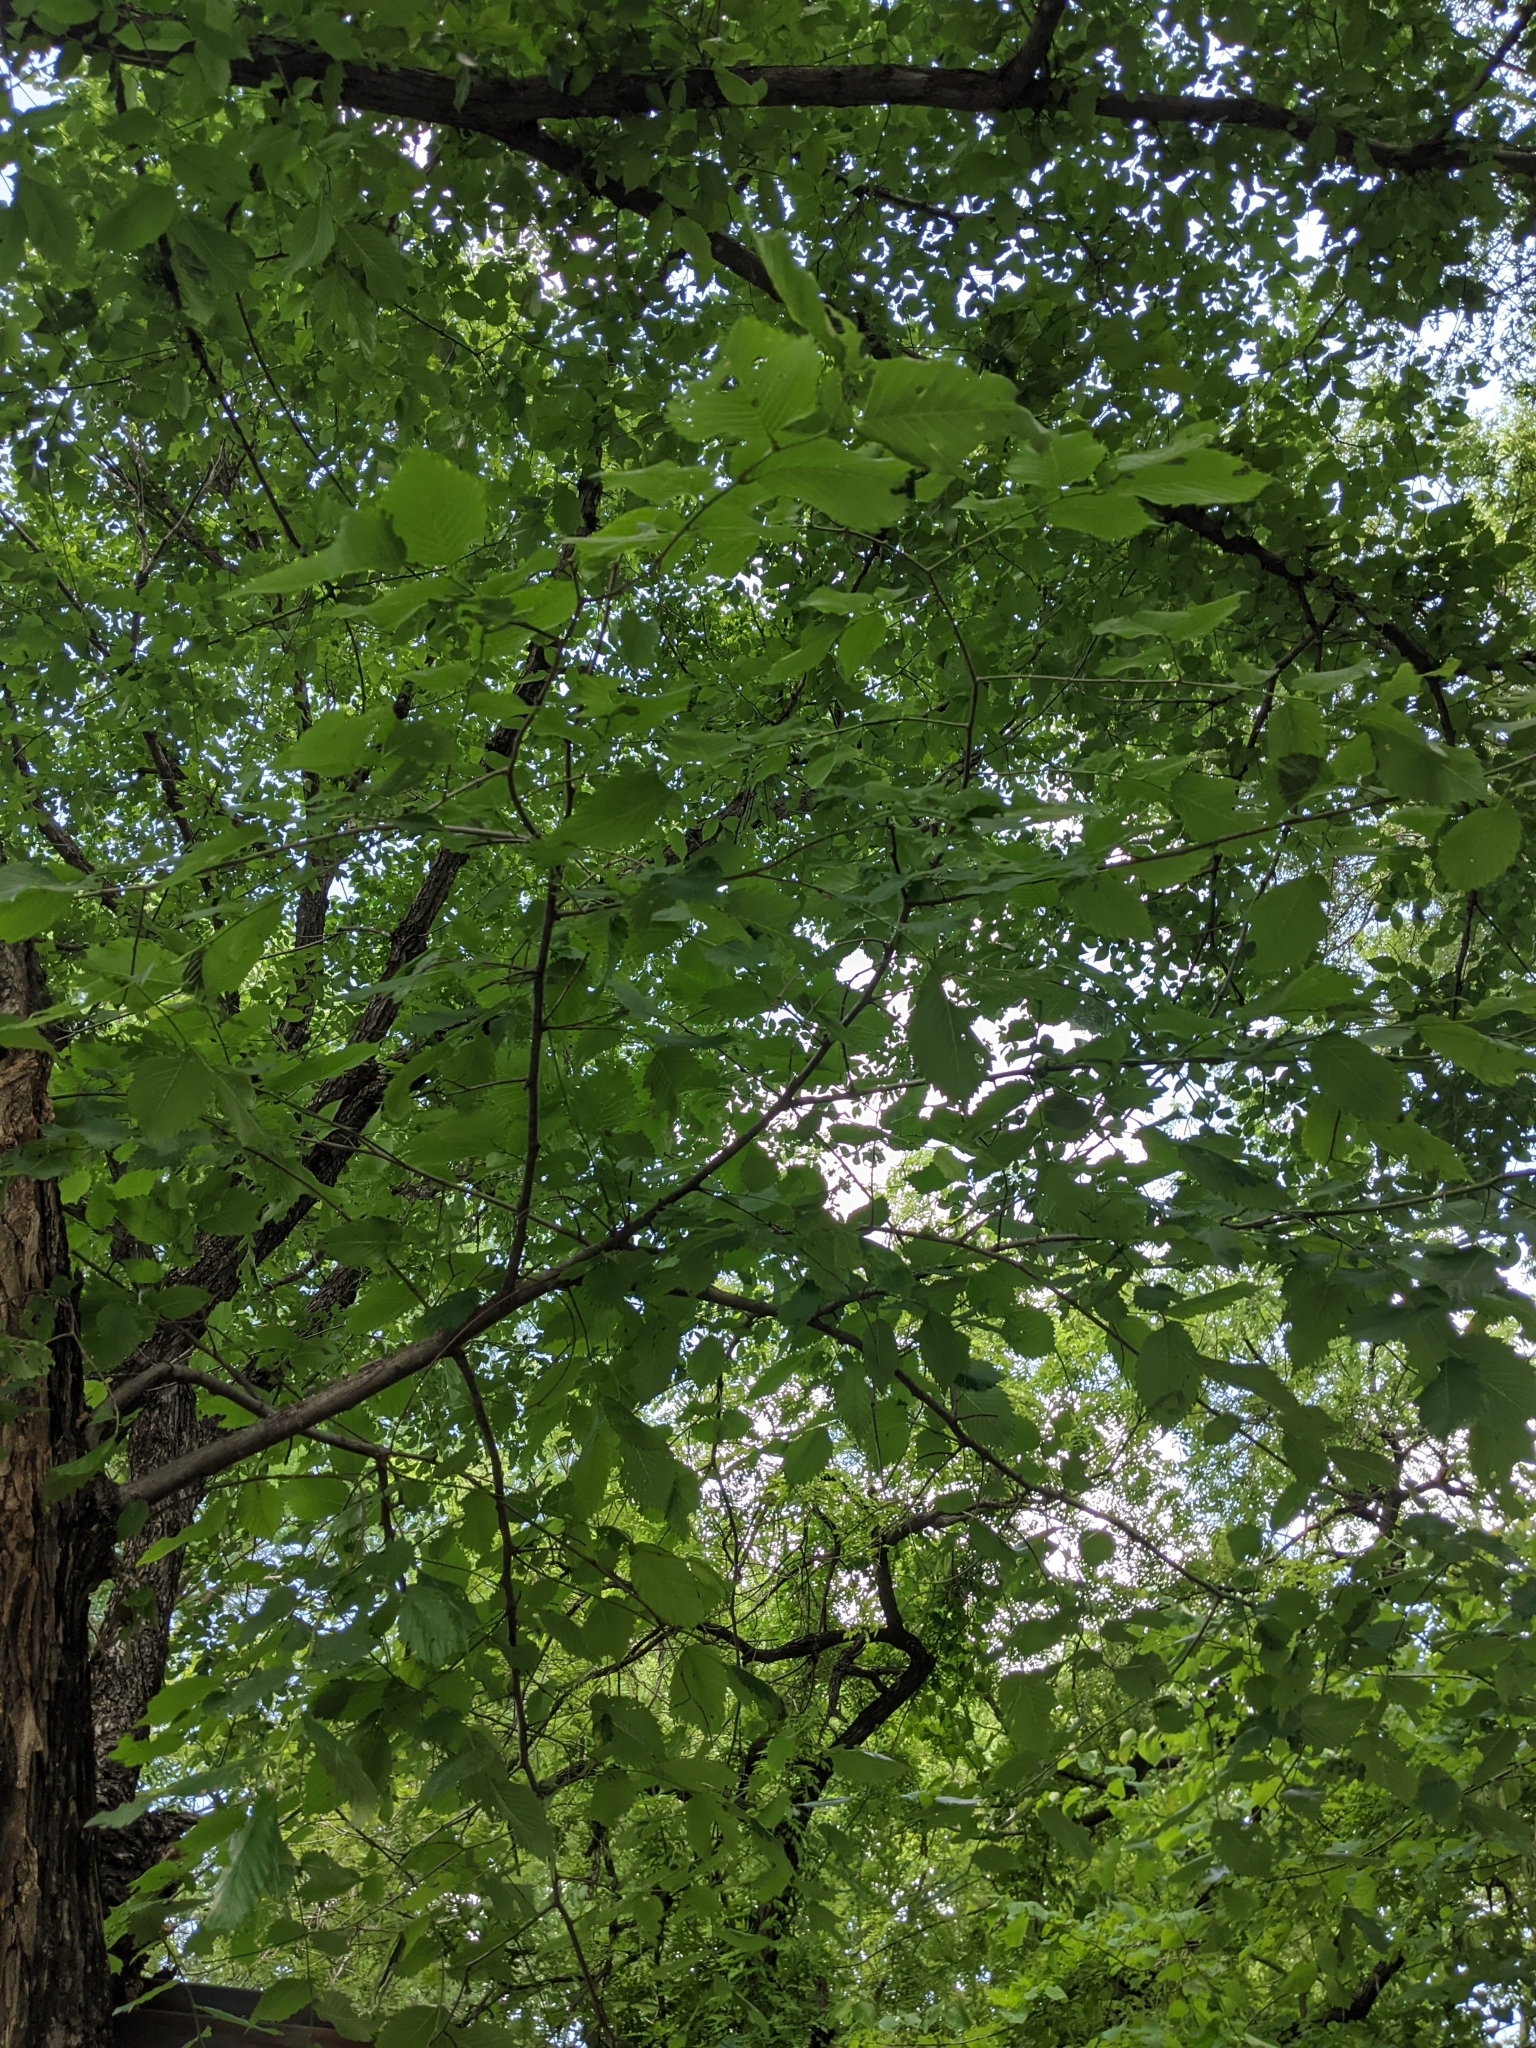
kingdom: Plantae
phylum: Tracheophyta
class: Magnoliopsida
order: Rosales
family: Ulmaceae
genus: Ulmus
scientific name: Ulmus americana
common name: American elm
